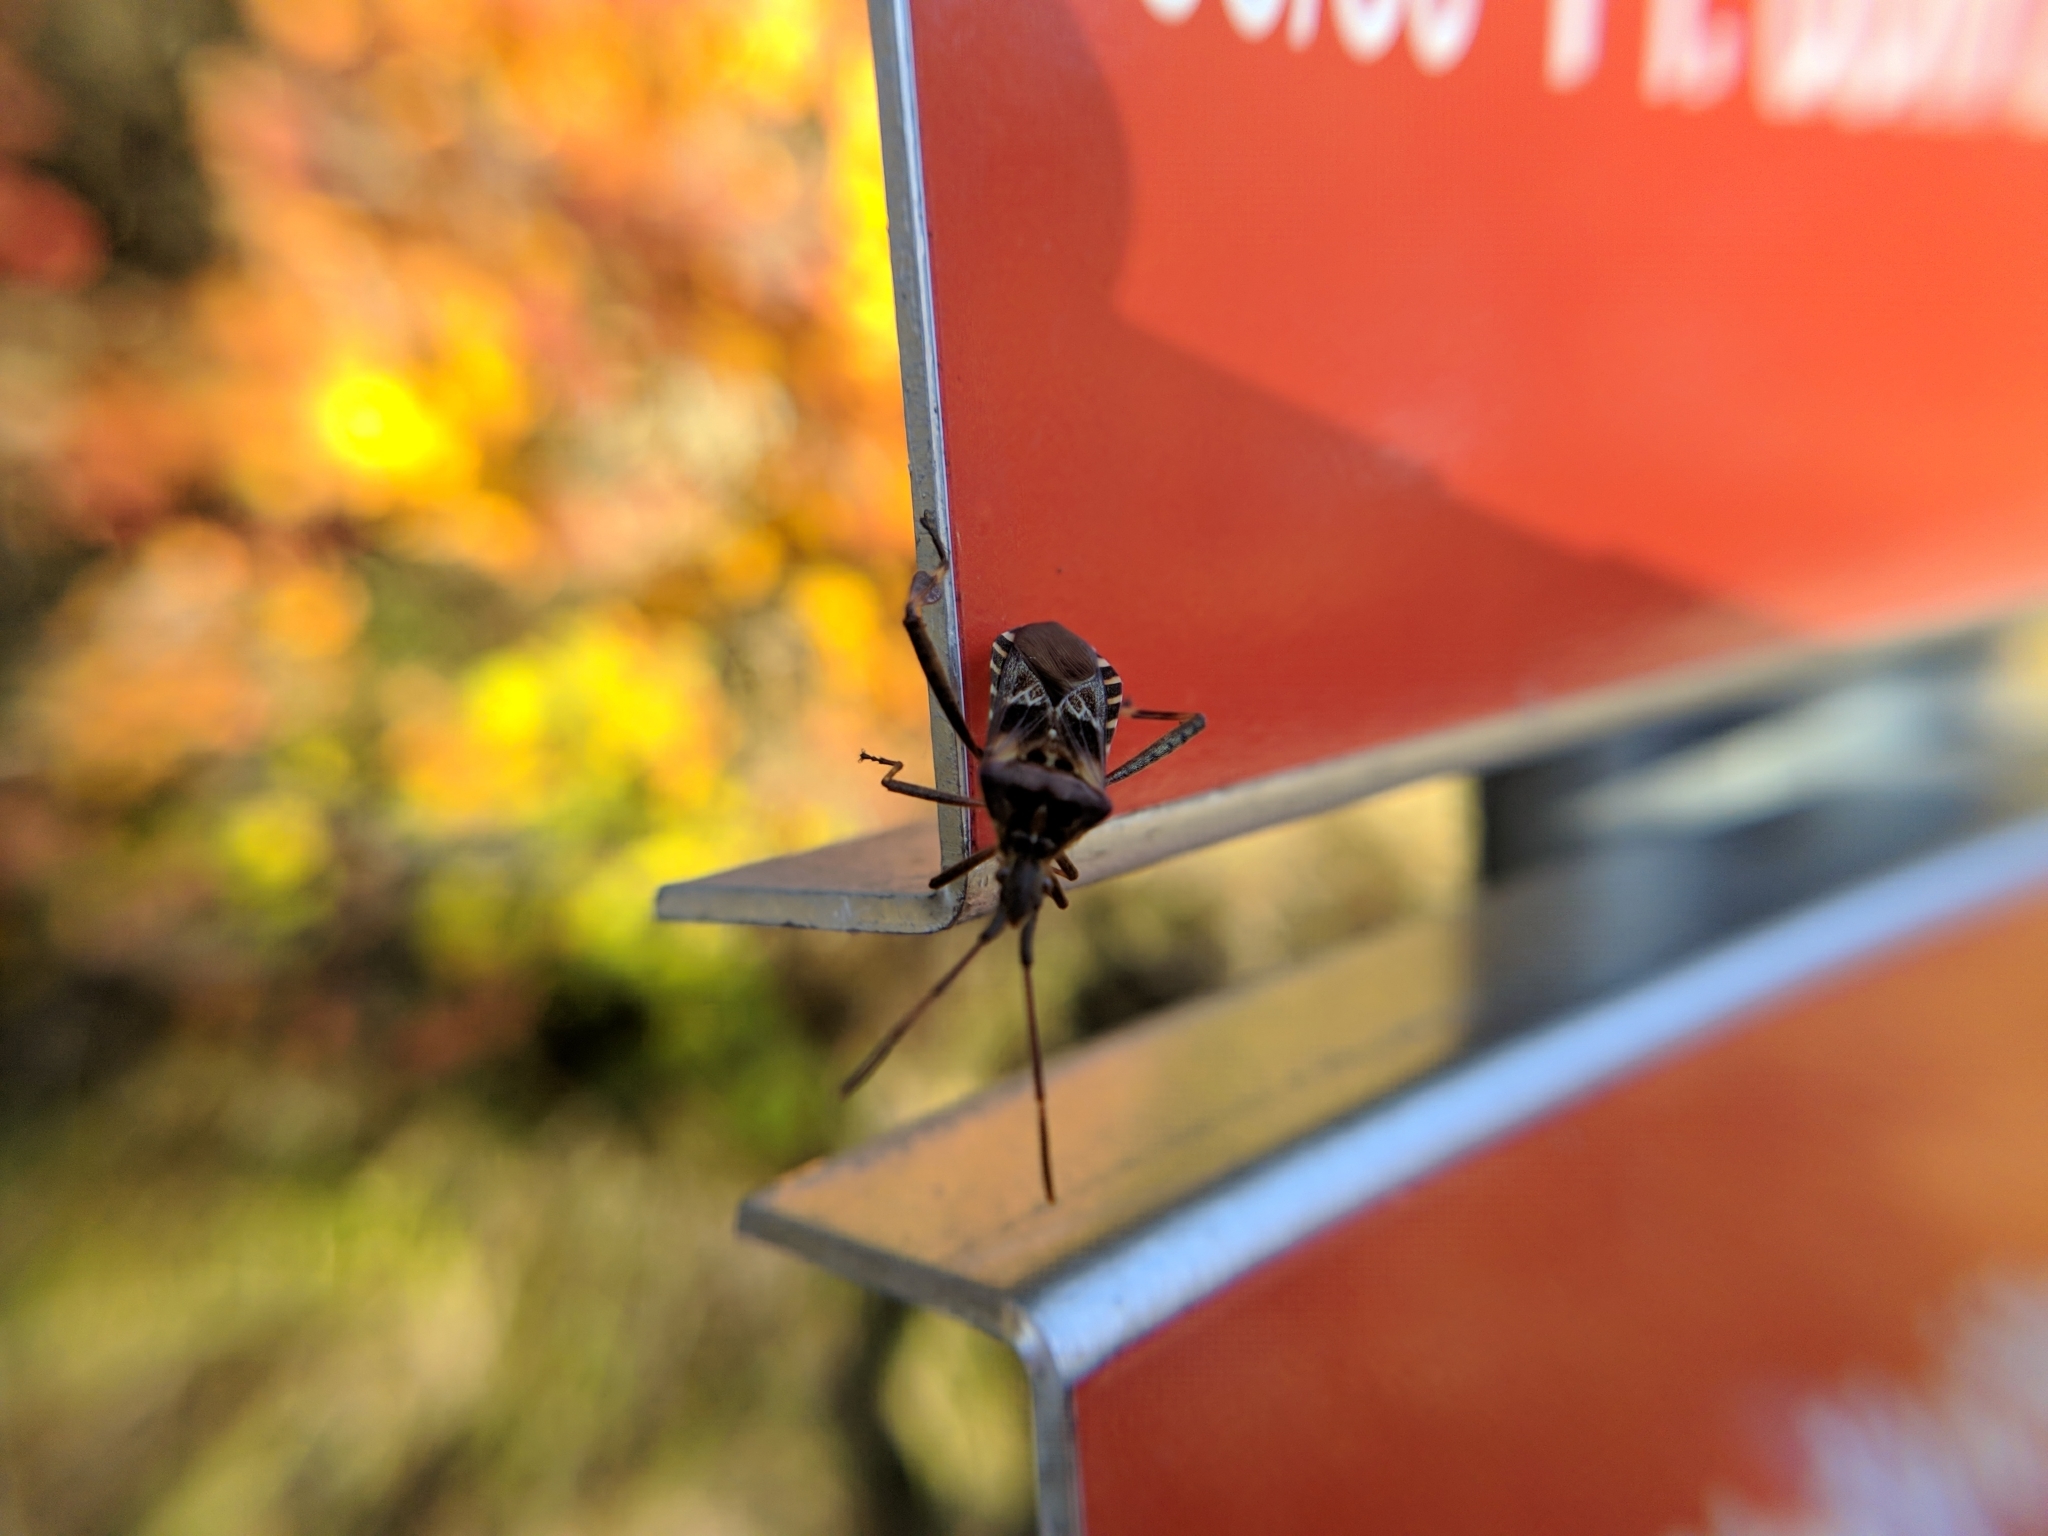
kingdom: Animalia
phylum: Arthropoda
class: Insecta
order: Hemiptera
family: Coreidae
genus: Leptoglossus
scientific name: Leptoglossus occidentalis
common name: Western conifer-seed bug
